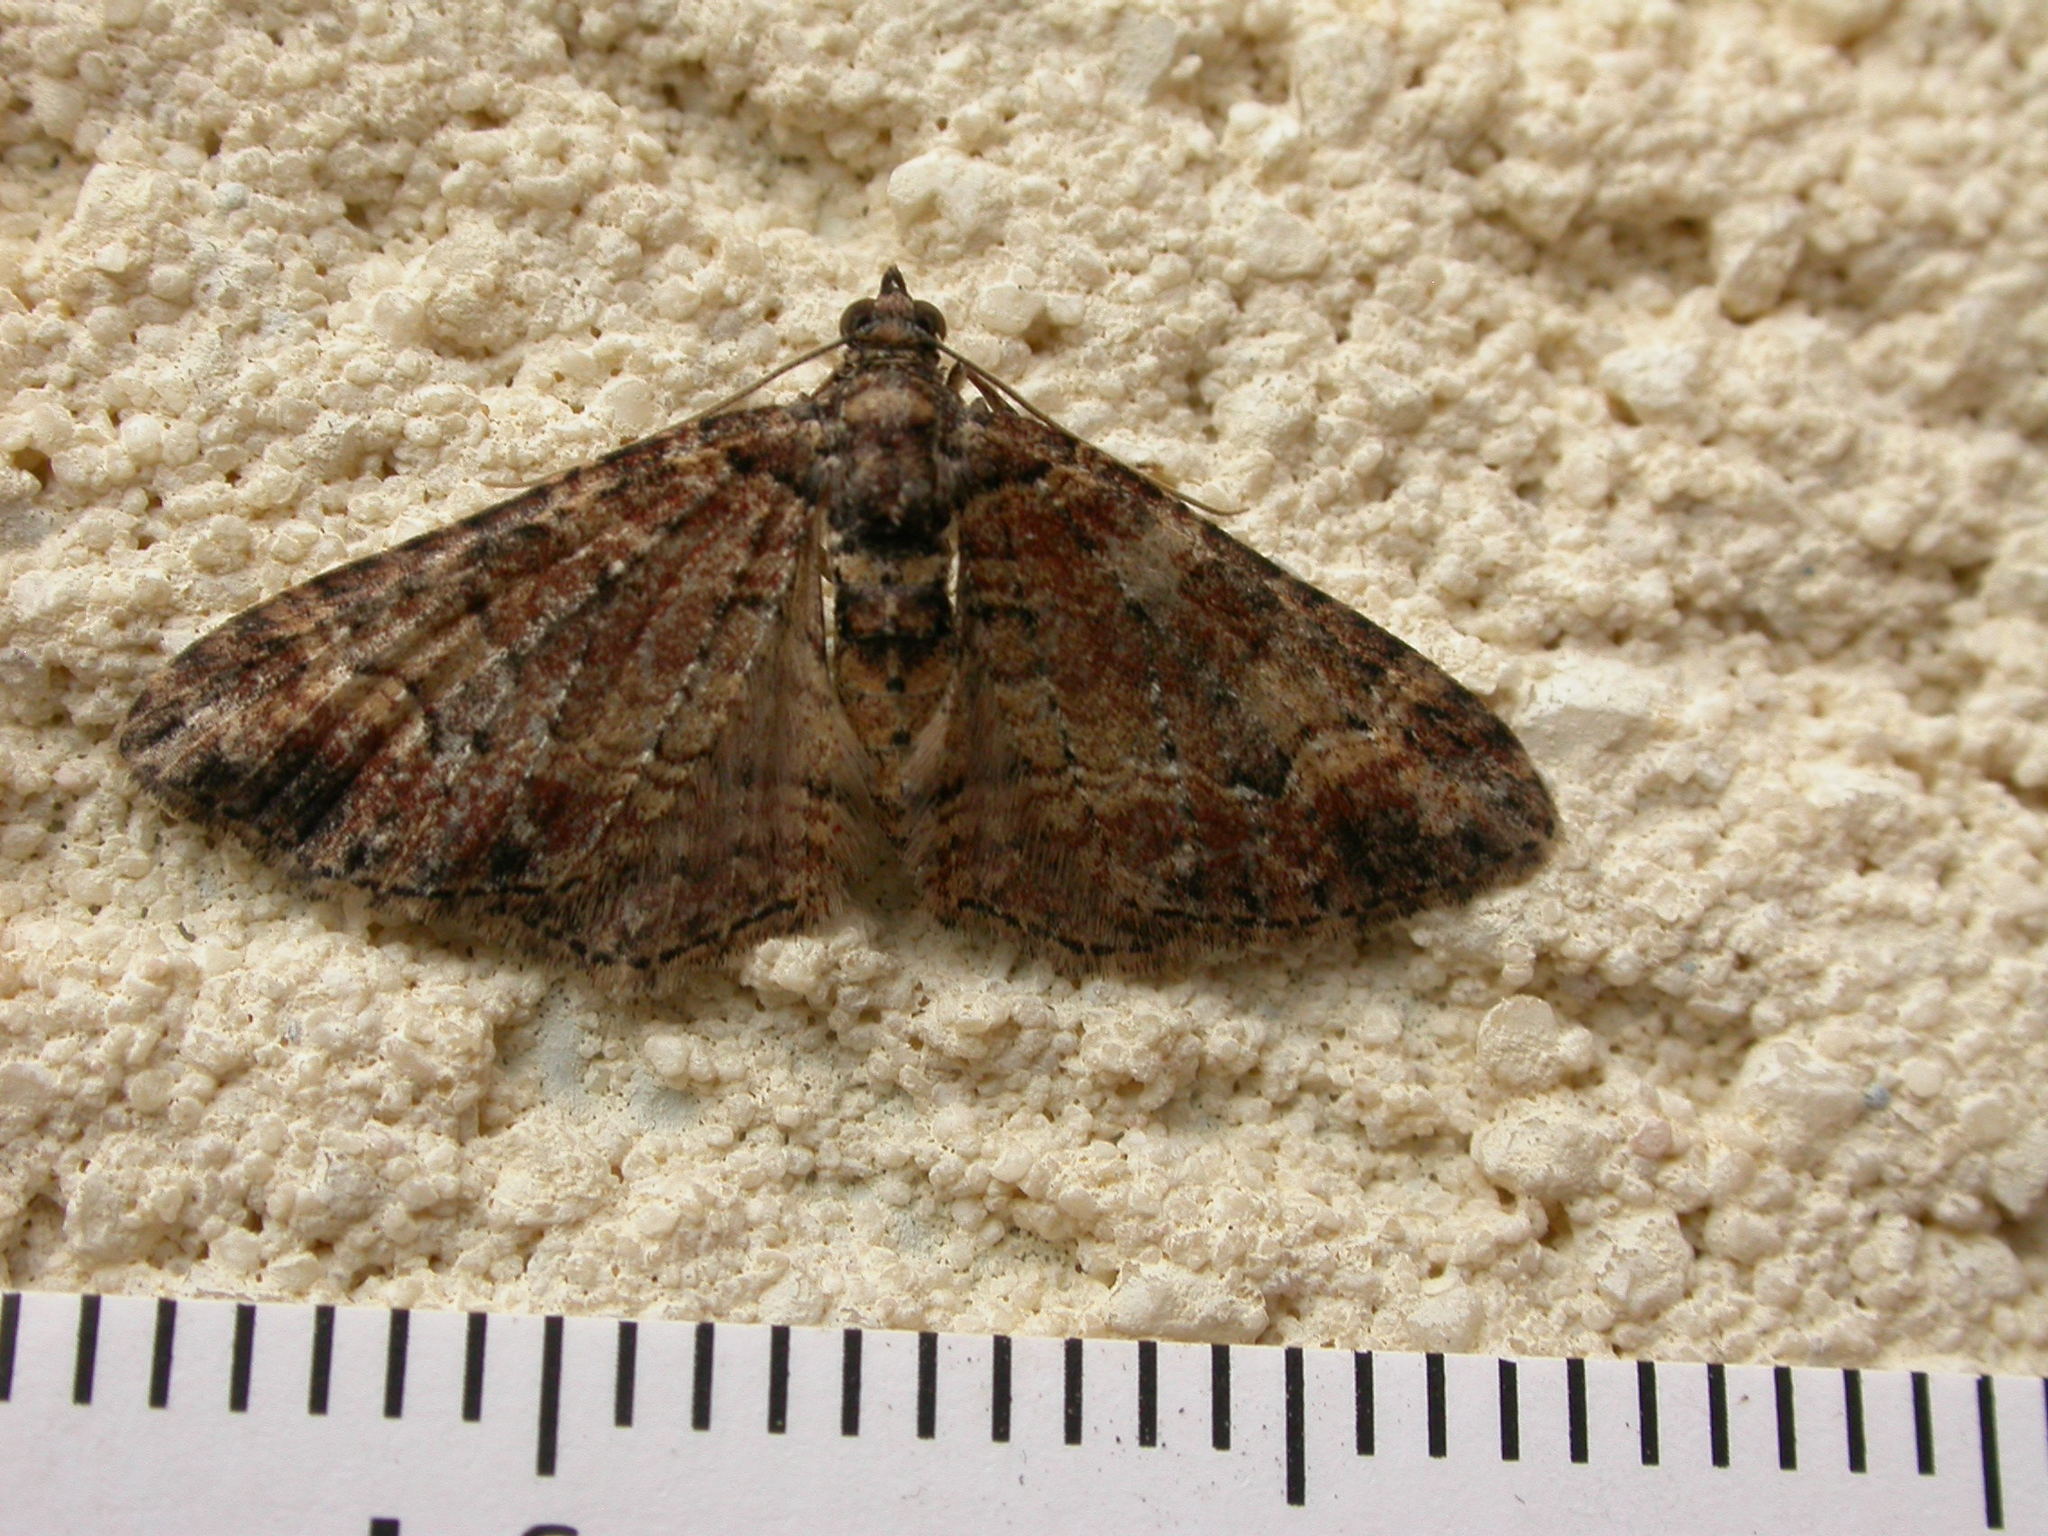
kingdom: Animalia
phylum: Arthropoda
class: Insecta
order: Lepidoptera
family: Geometridae
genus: Epyaxa
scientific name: Epyaxa sodaliata
